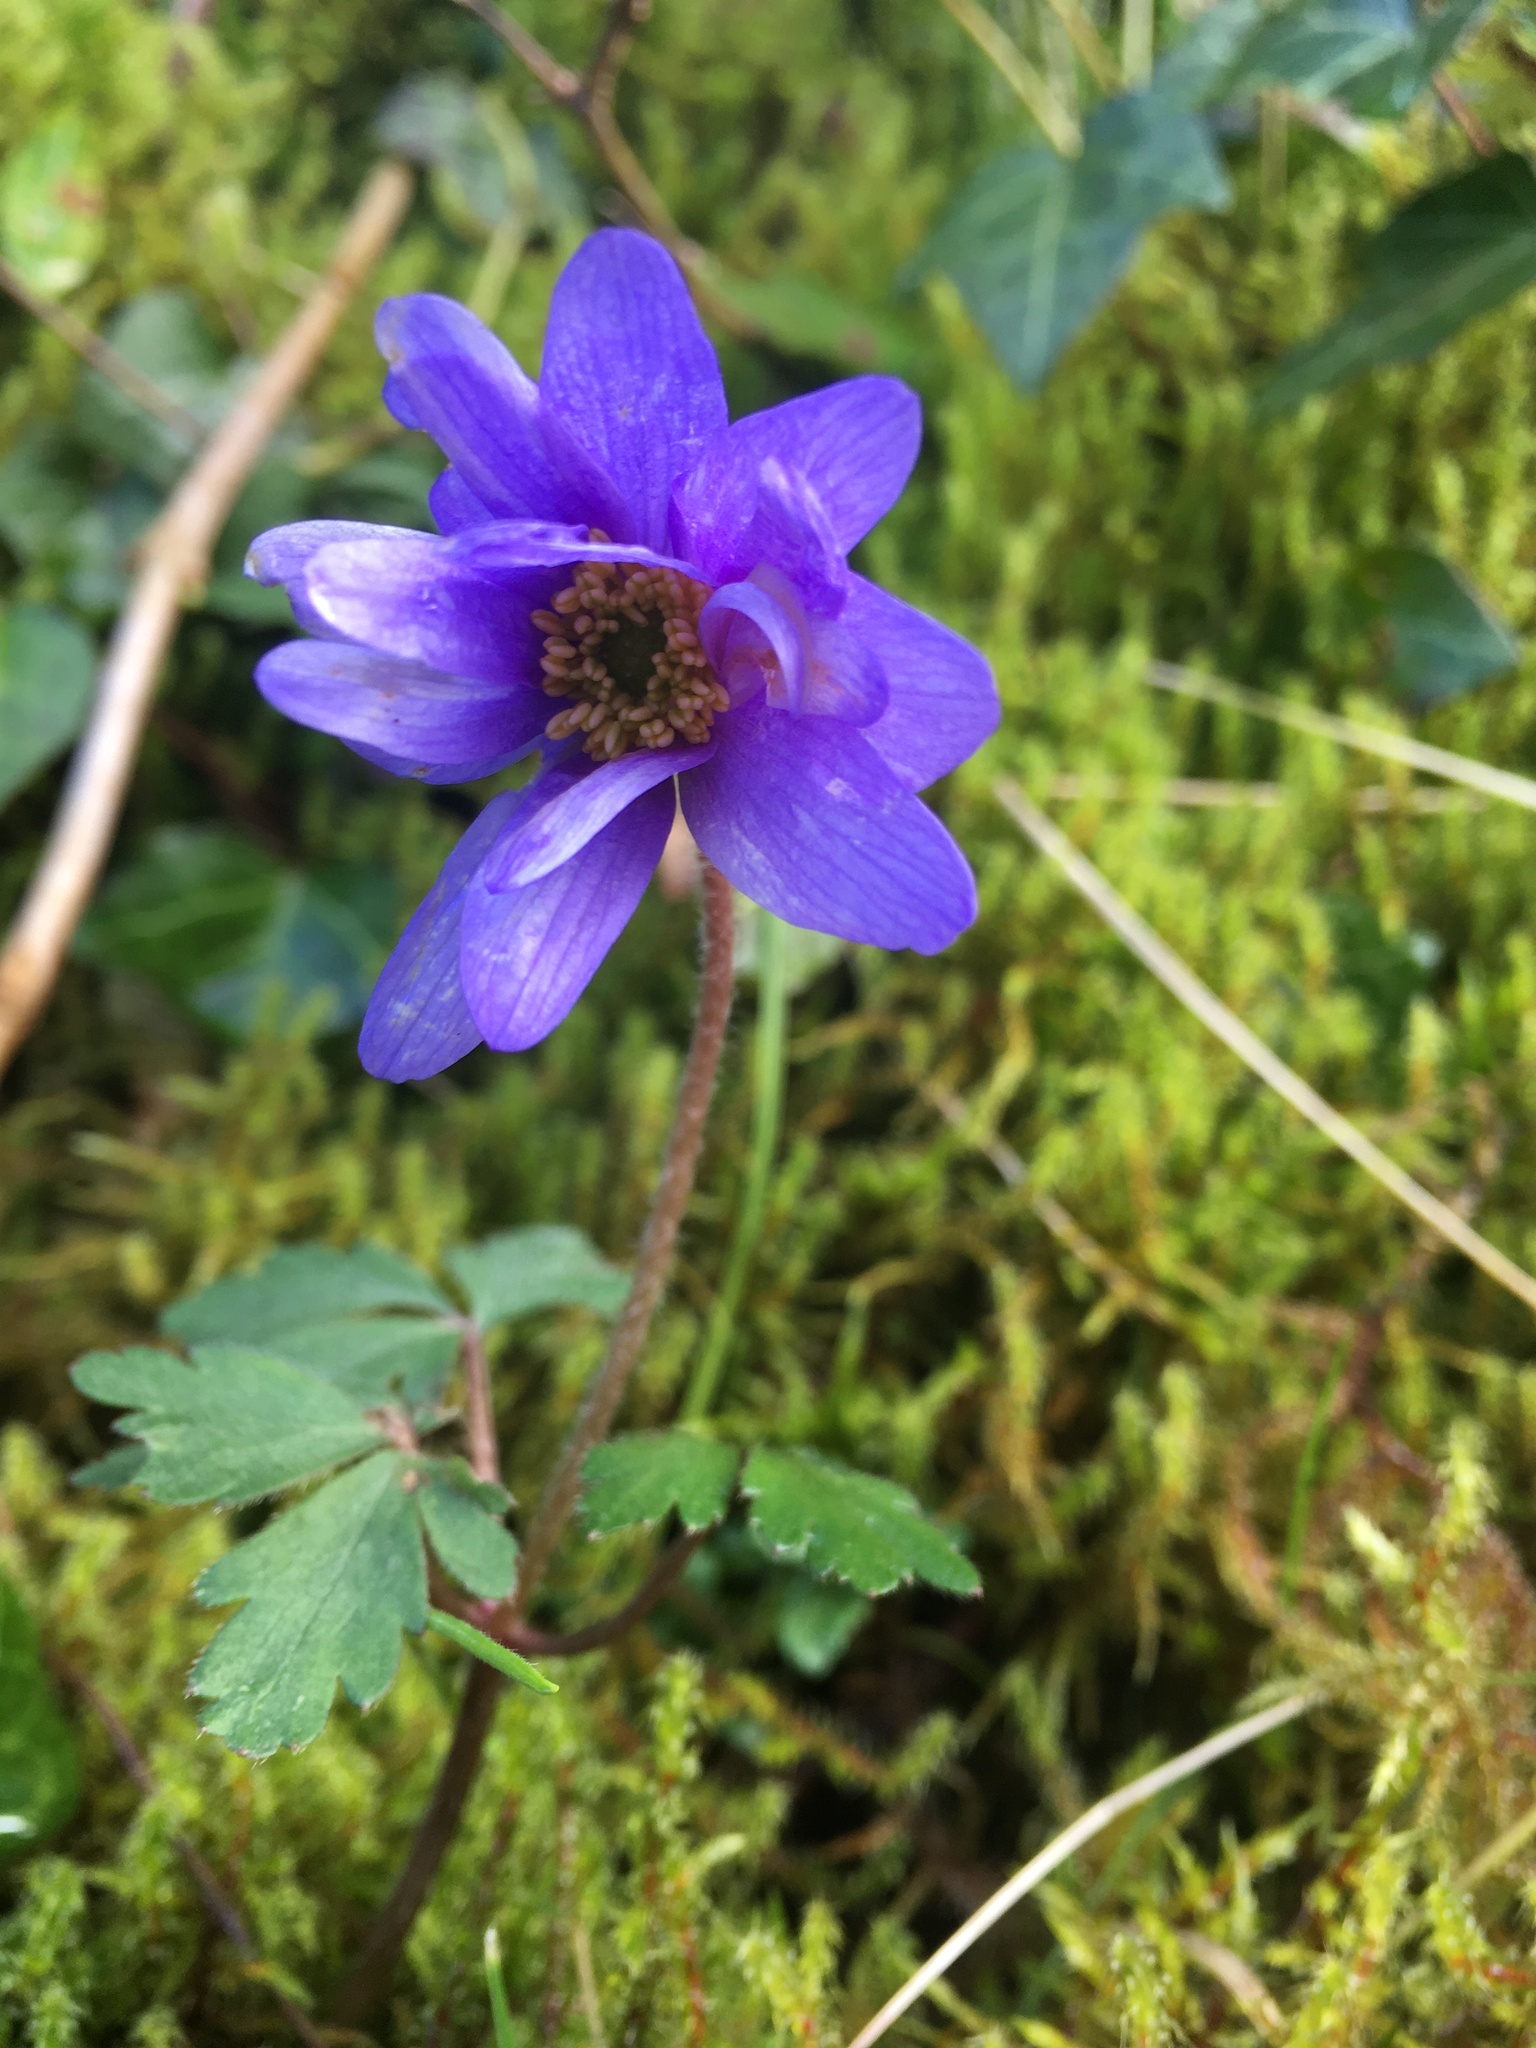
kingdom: Plantae
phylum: Tracheophyta
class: Magnoliopsida
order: Ranunculales
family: Ranunculaceae
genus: Anemone
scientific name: Anemone blanda
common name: Balkan anemone
